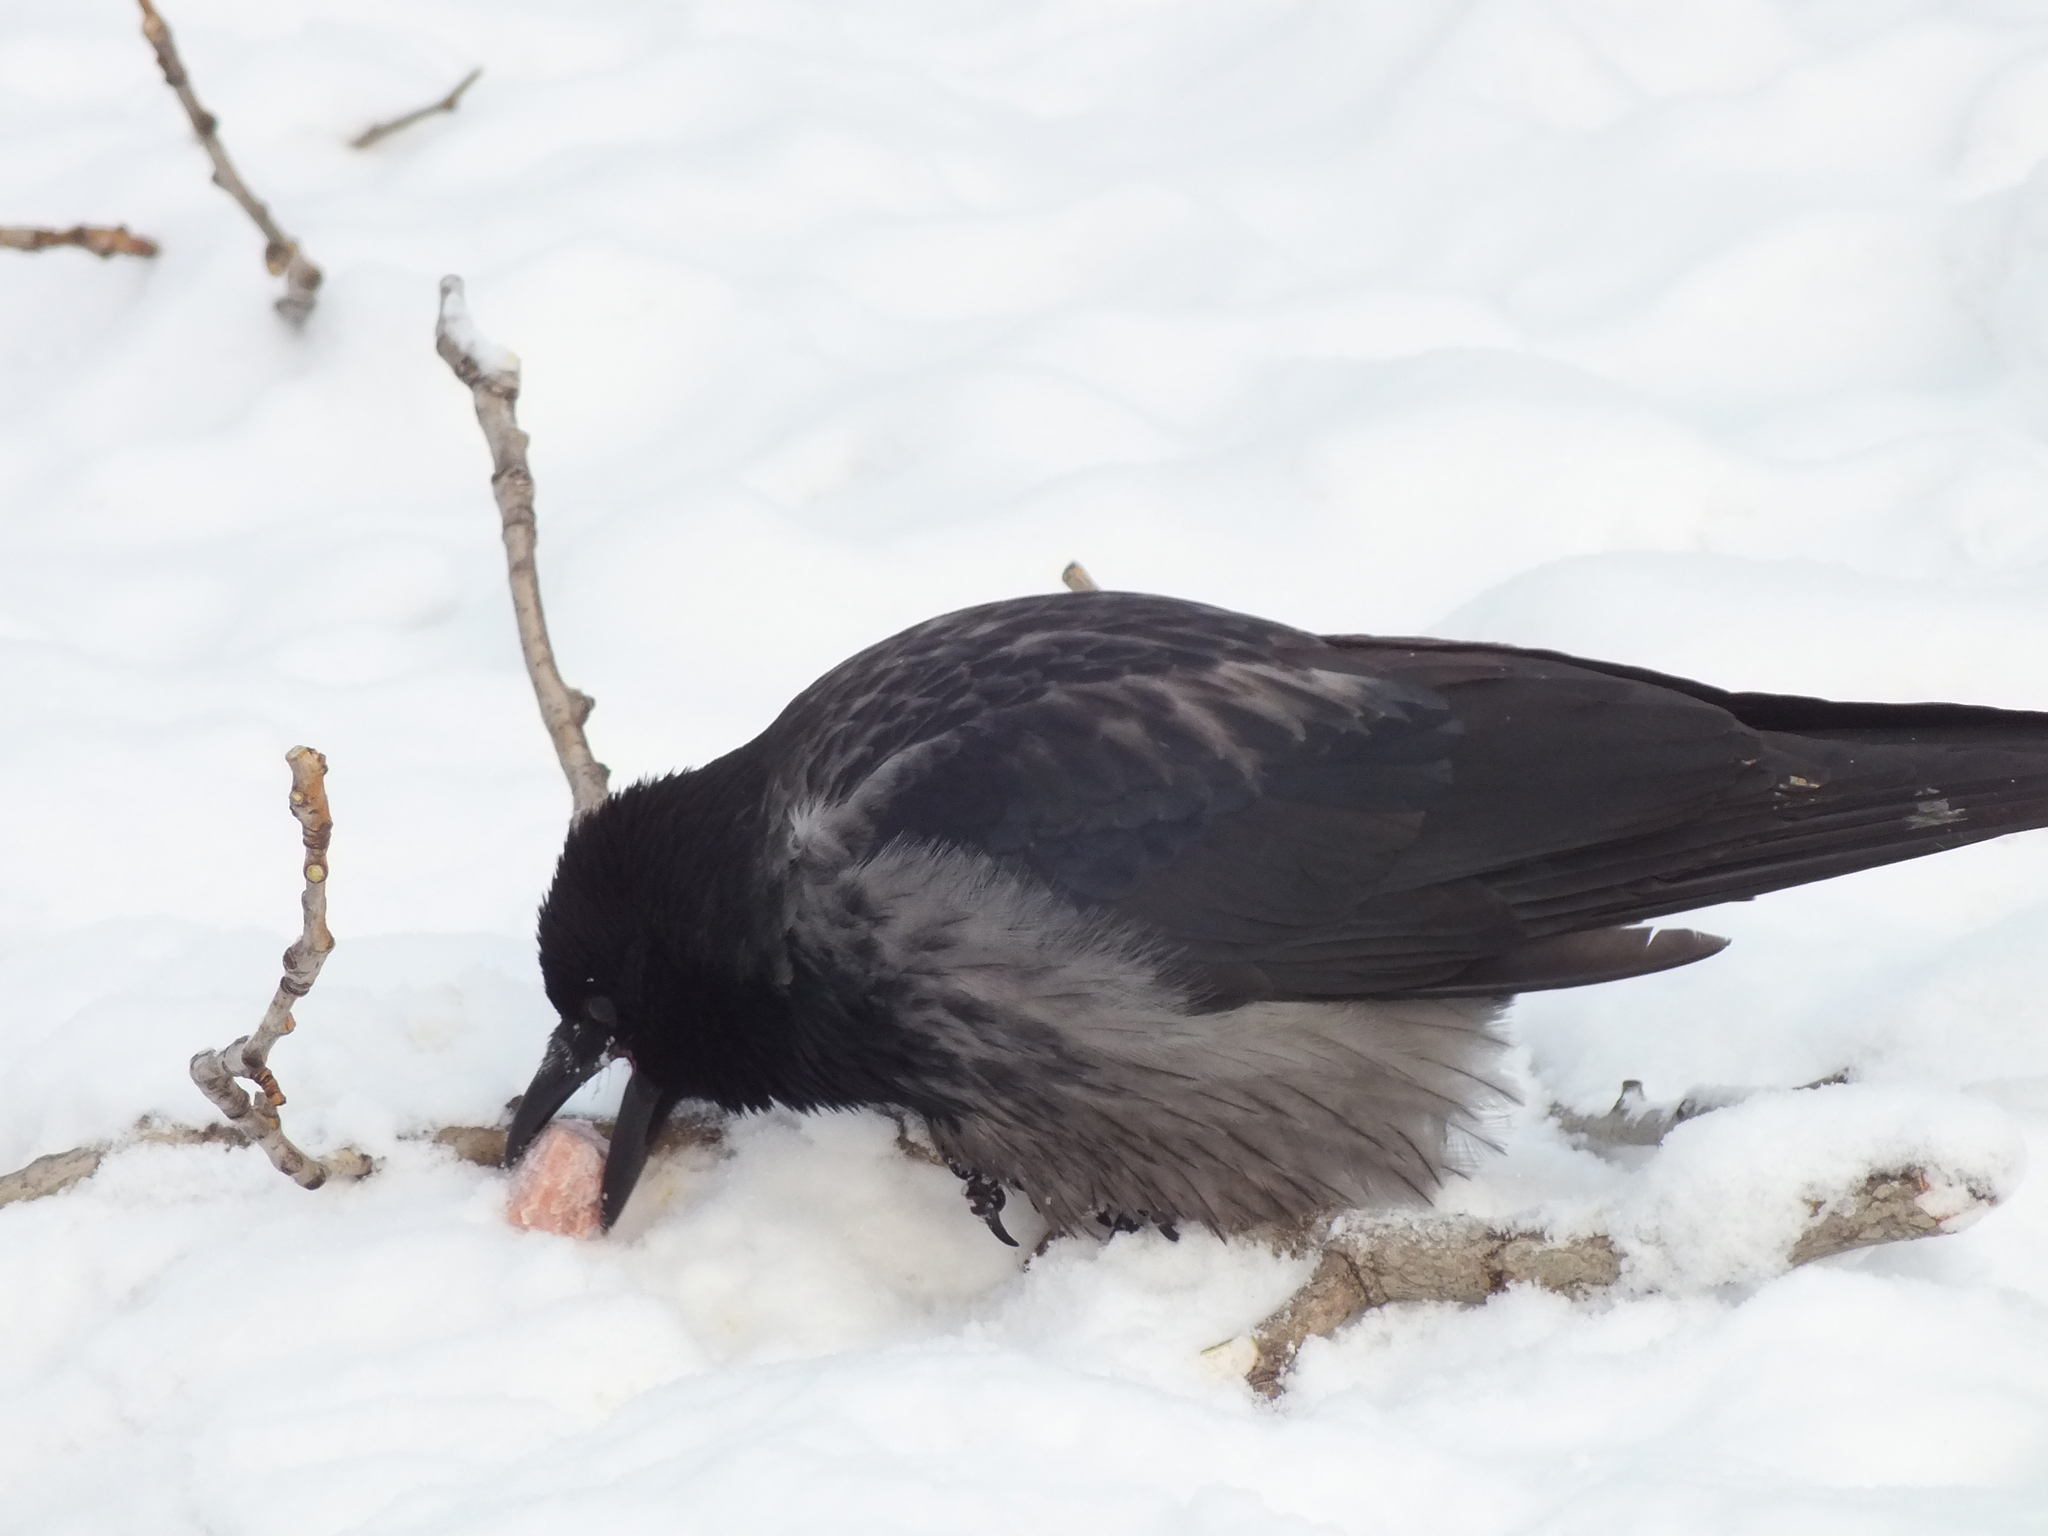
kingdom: Animalia
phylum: Chordata
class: Aves
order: Passeriformes
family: Corvidae
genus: Corvus
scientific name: Corvus
